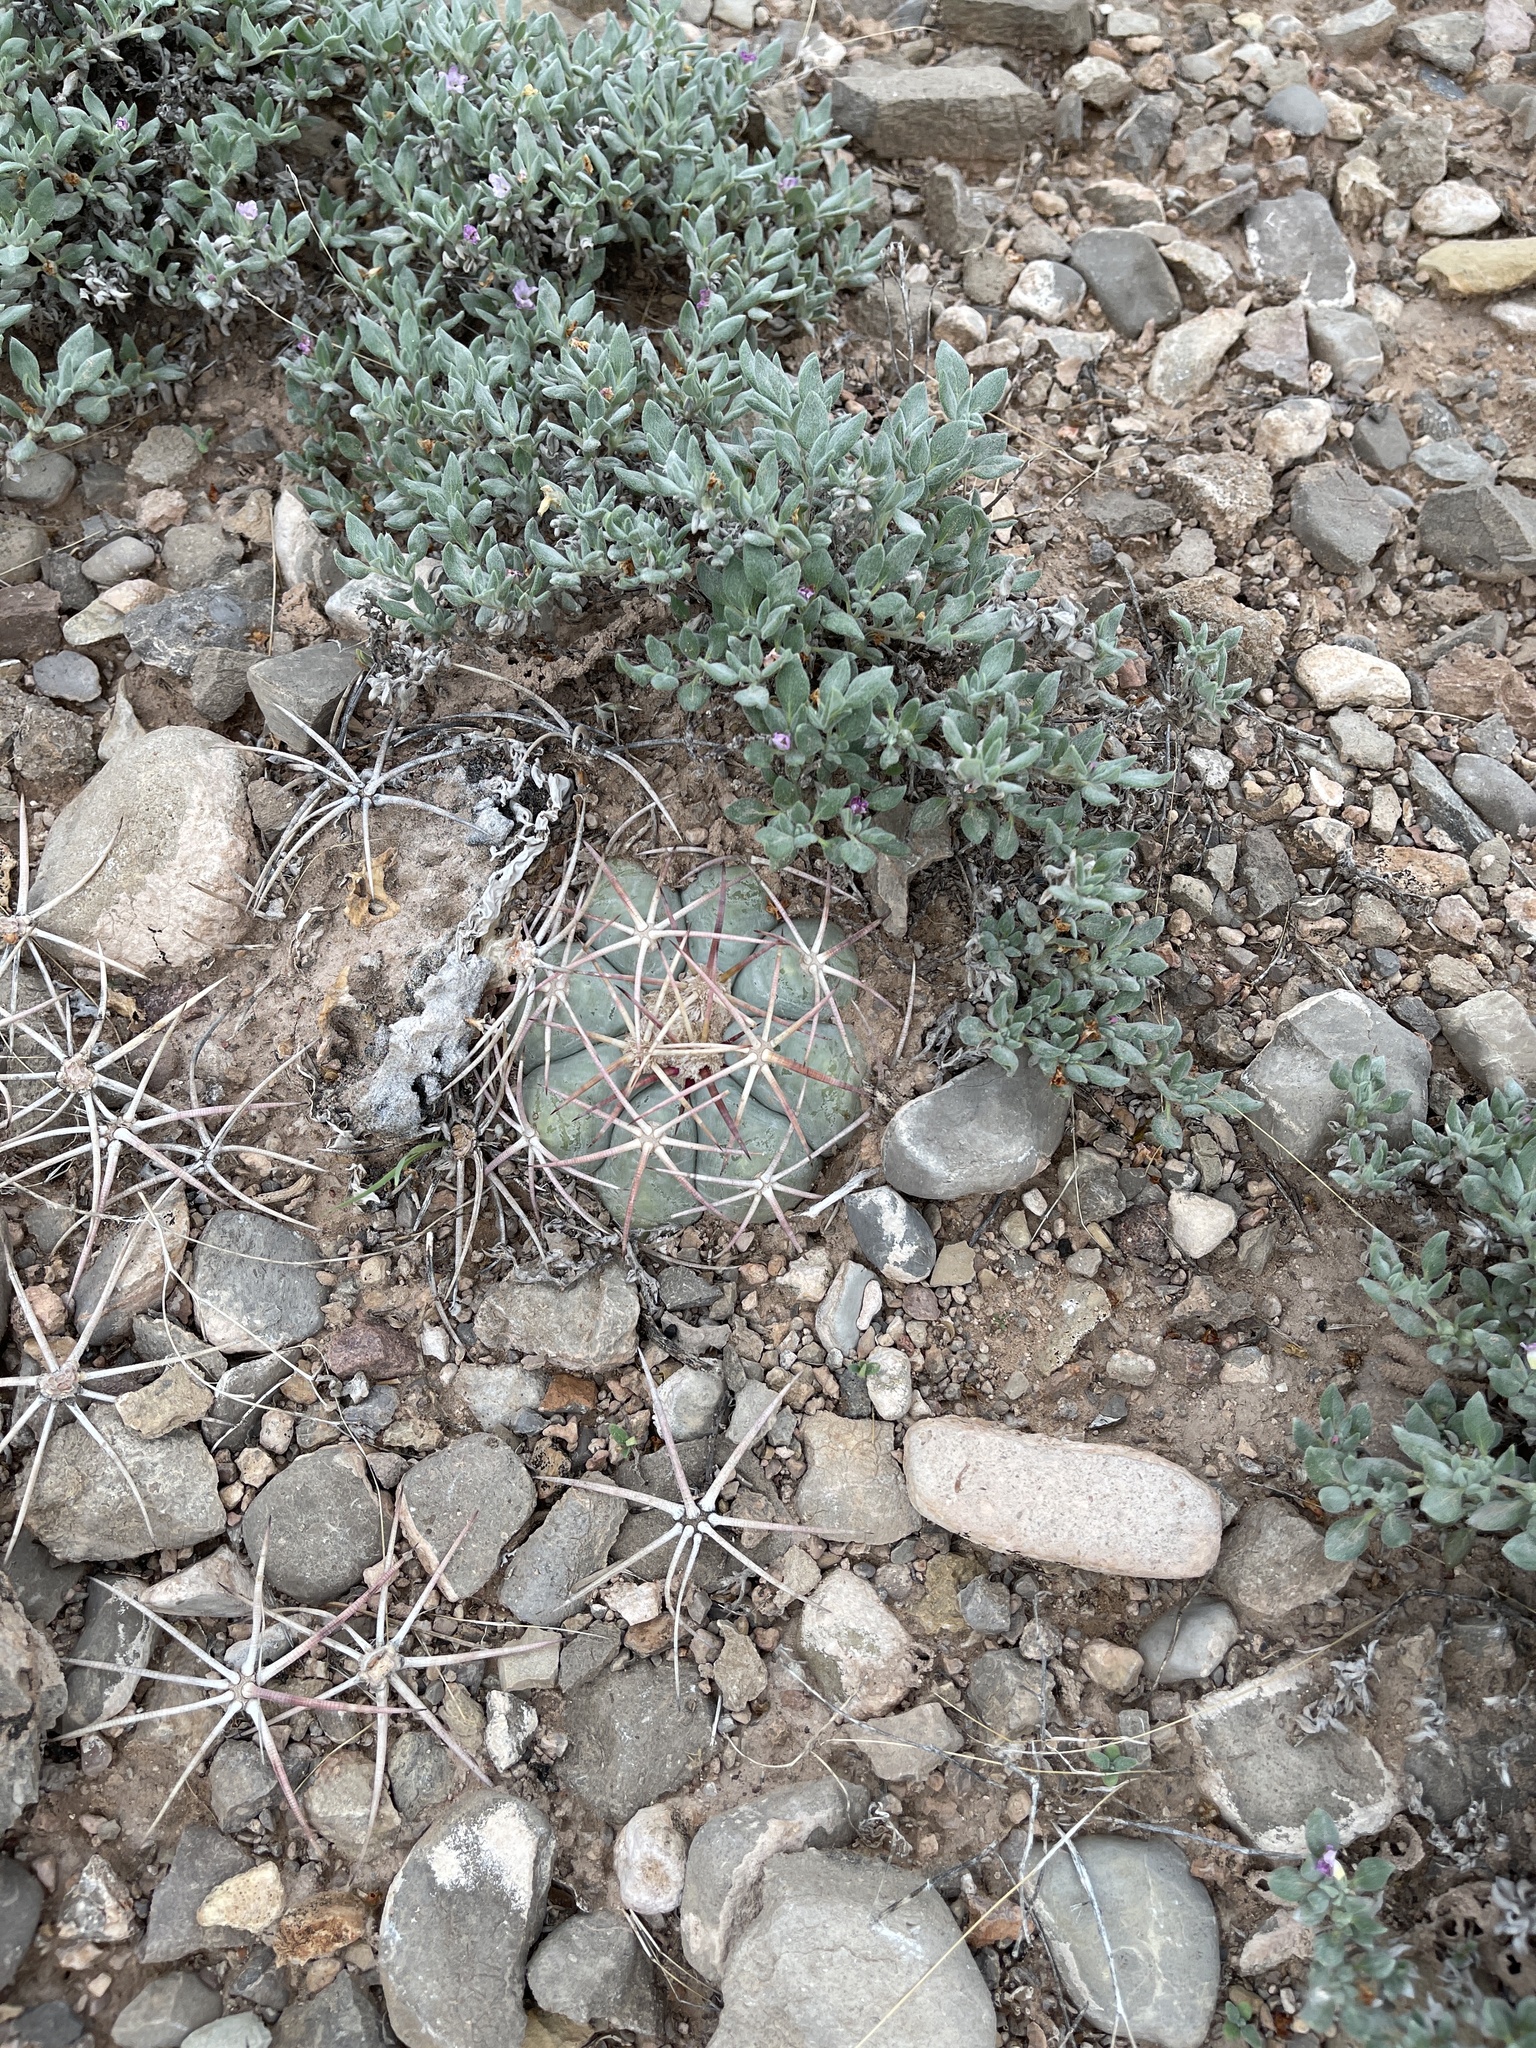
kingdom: Plantae
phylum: Tracheophyta
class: Magnoliopsida
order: Caryophyllales
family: Cactaceae
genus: Echinocactus
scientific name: Echinocactus horizonthalonius
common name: Devilshead
